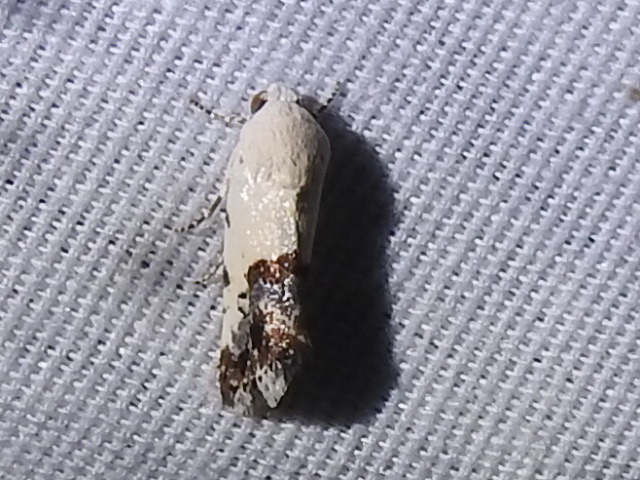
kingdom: Animalia
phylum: Arthropoda
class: Insecta
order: Lepidoptera
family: Noctuidae
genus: Acontia
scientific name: Acontia phecolisca
